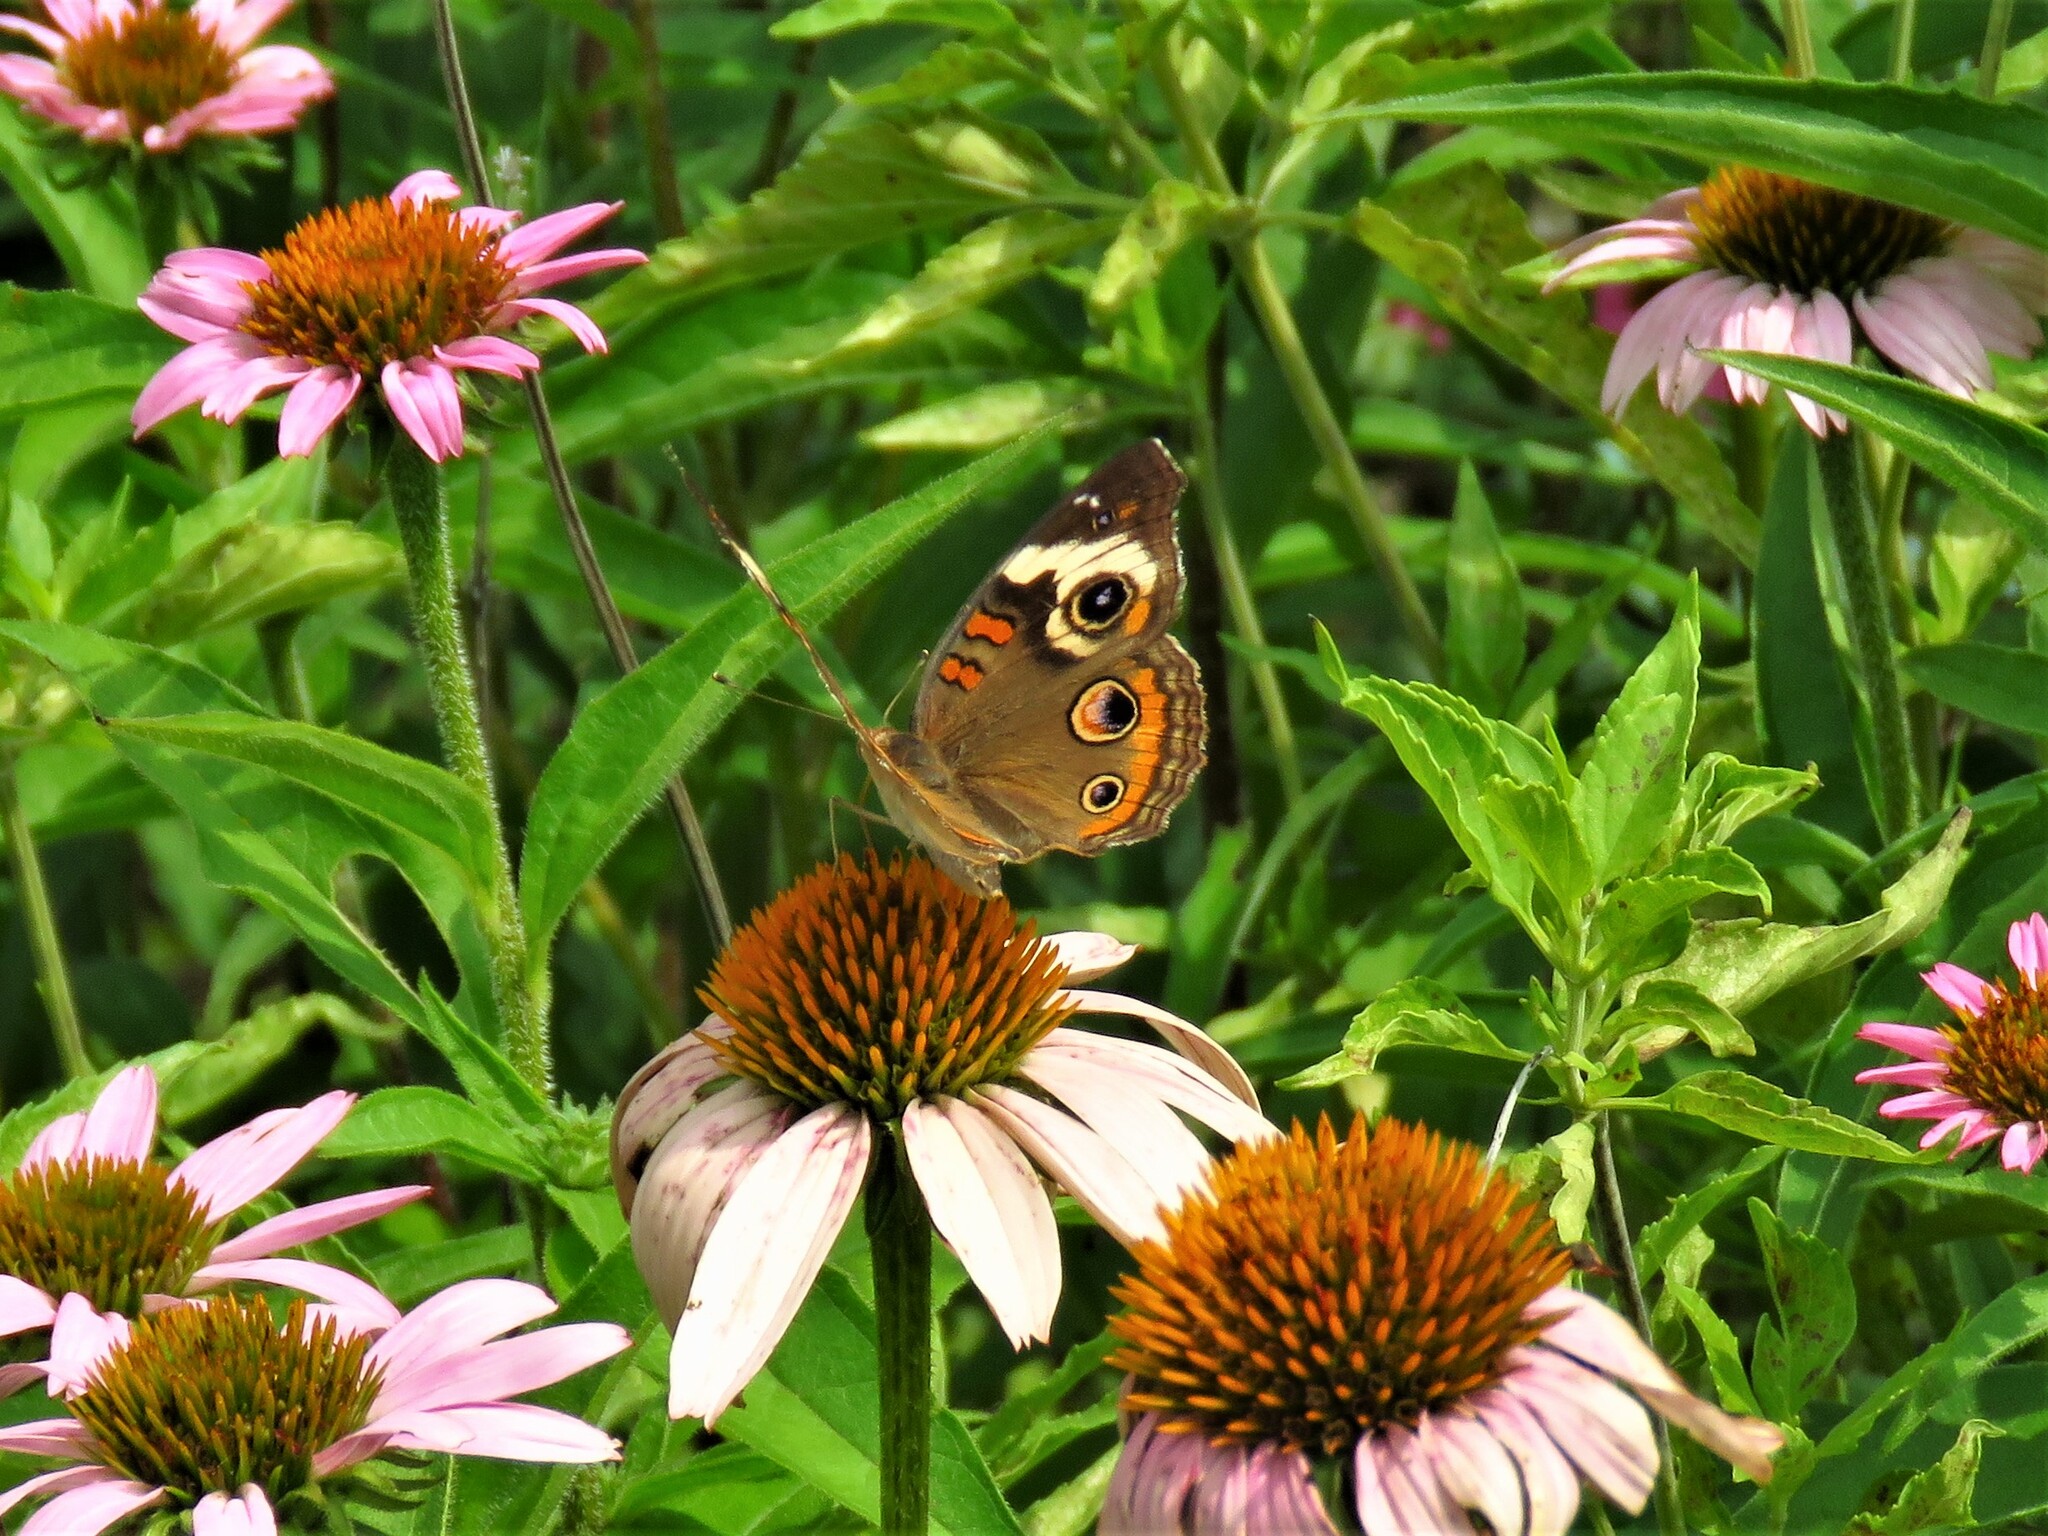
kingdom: Animalia
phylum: Arthropoda
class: Insecta
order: Lepidoptera
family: Nymphalidae
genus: Junonia
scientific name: Junonia coenia
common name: Common buckeye
